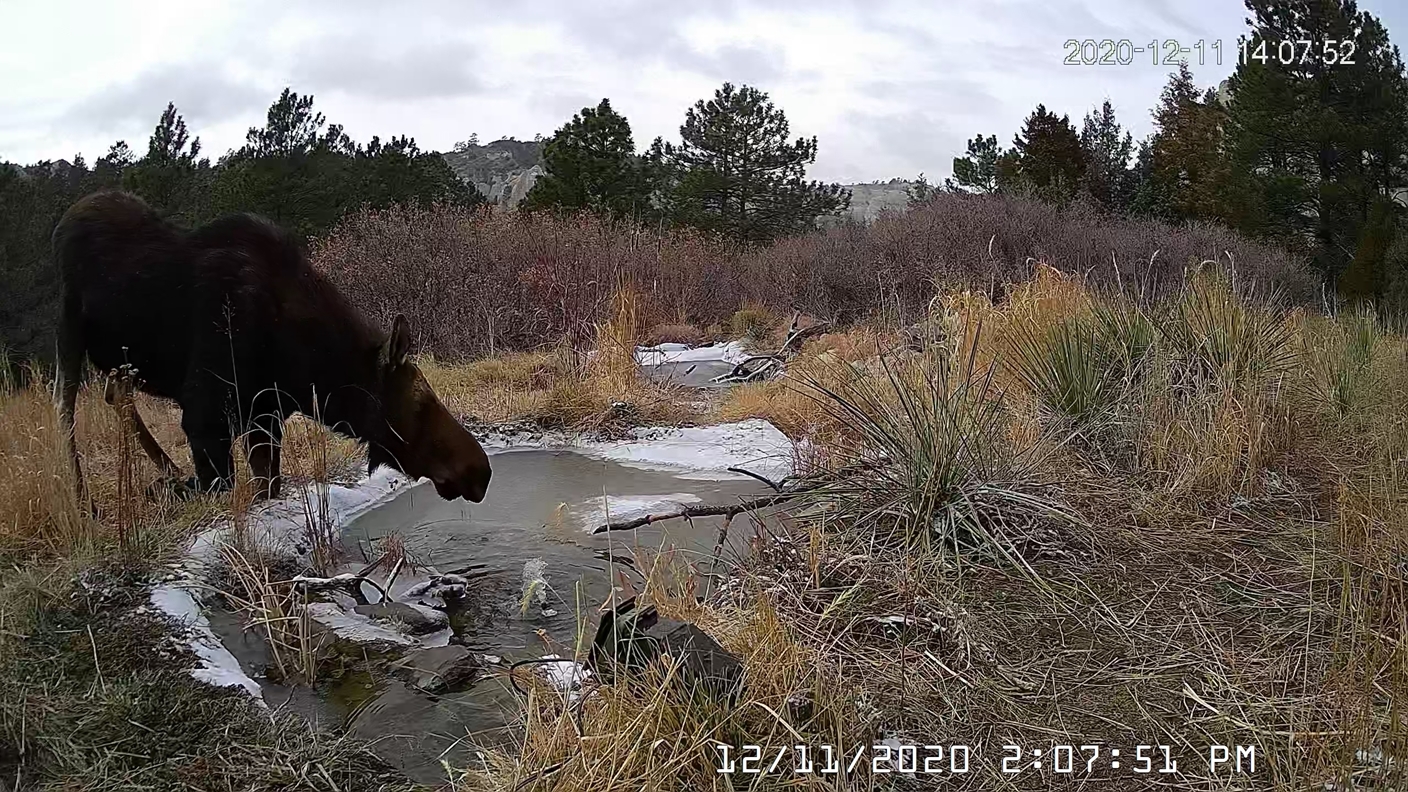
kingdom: Animalia
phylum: Chordata
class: Mammalia
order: Artiodactyla
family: Cervidae
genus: Alces
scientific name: Alces alces
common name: Moose
